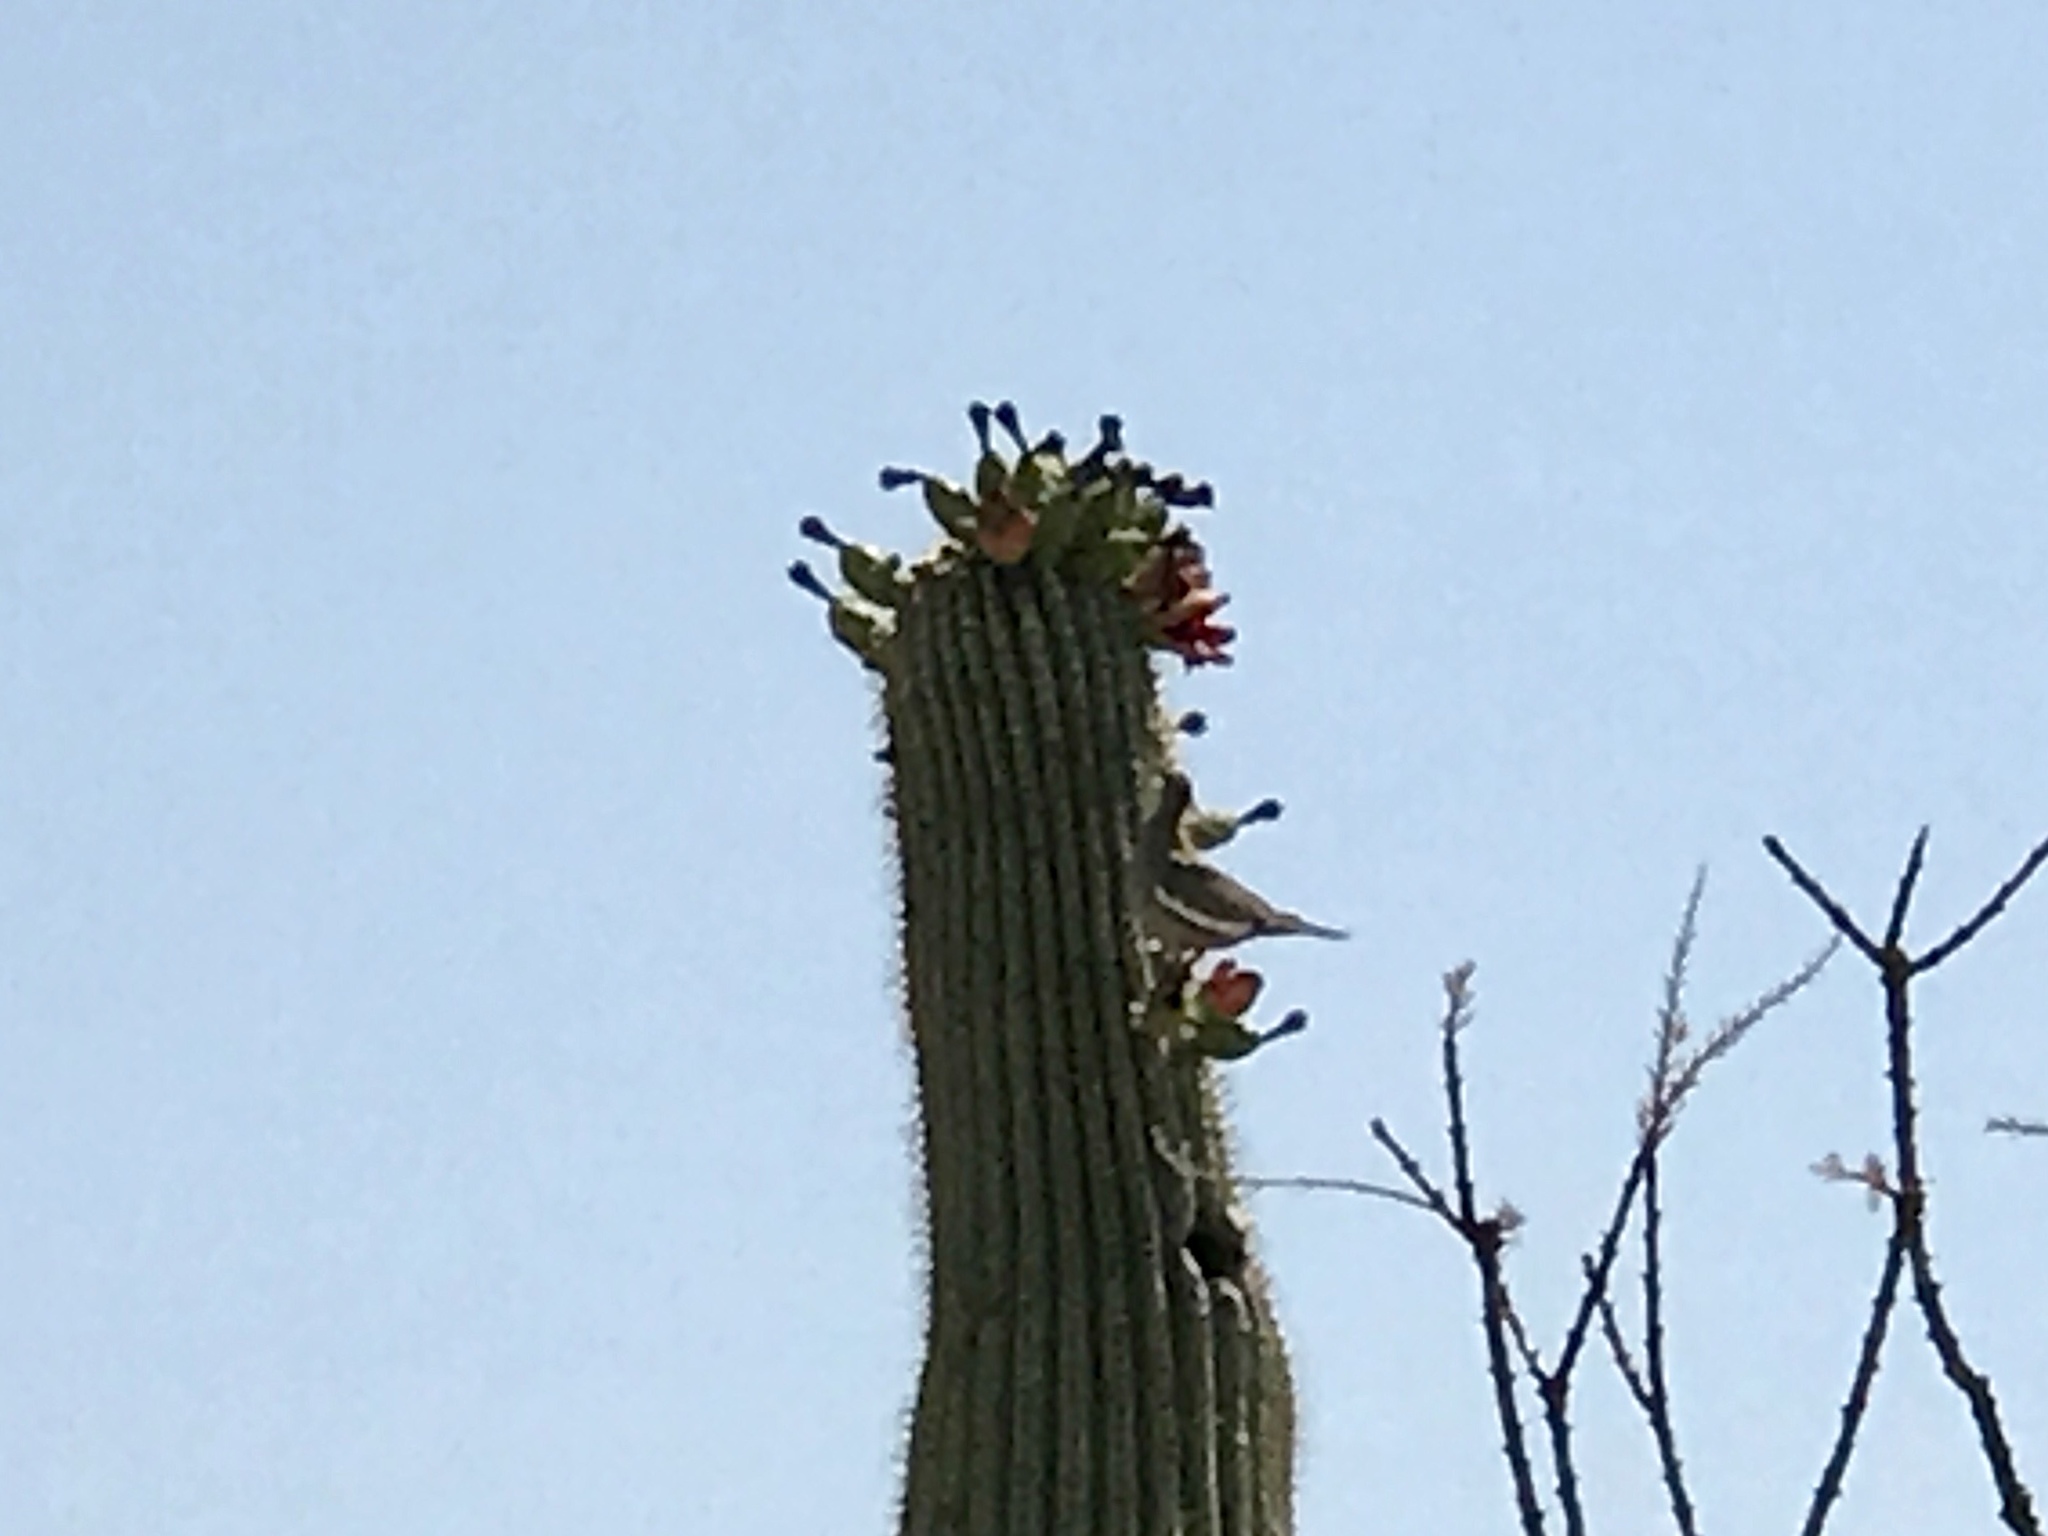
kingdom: Animalia
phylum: Chordata
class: Aves
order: Columbiformes
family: Columbidae
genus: Zenaida
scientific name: Zenaida asiatica
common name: White-winged dove
